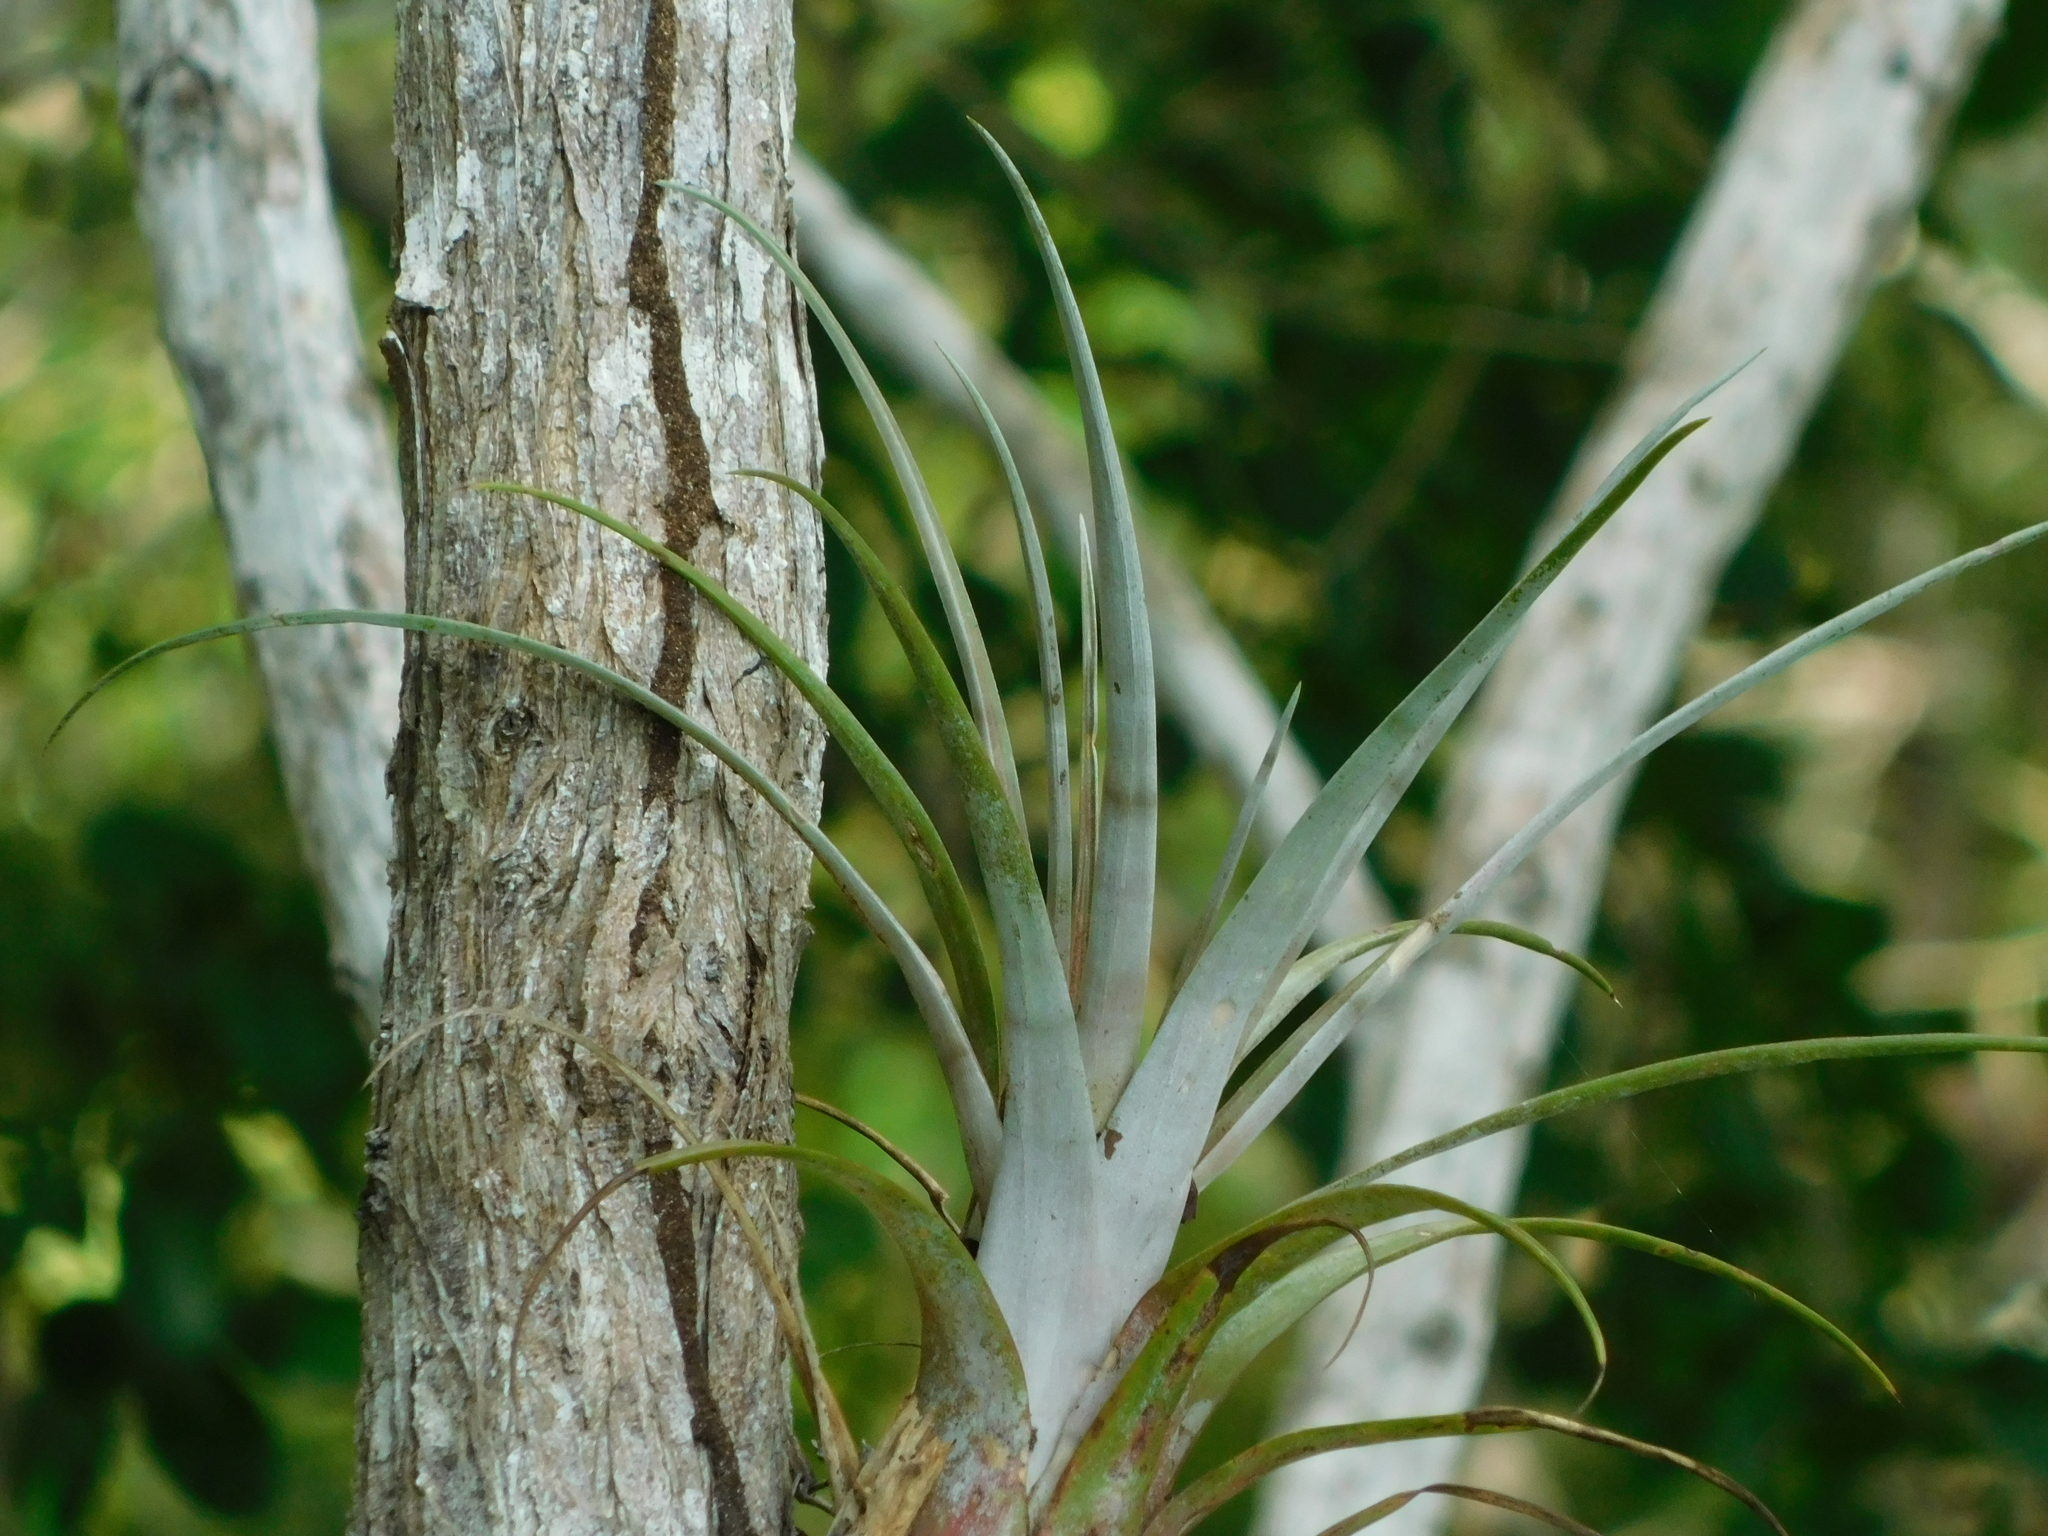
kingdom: Plantae
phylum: Tracheophyta
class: Liliopsida
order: Poales
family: Bromeliaceae
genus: Tillandsia
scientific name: Tillandsia dasyliriifolia
